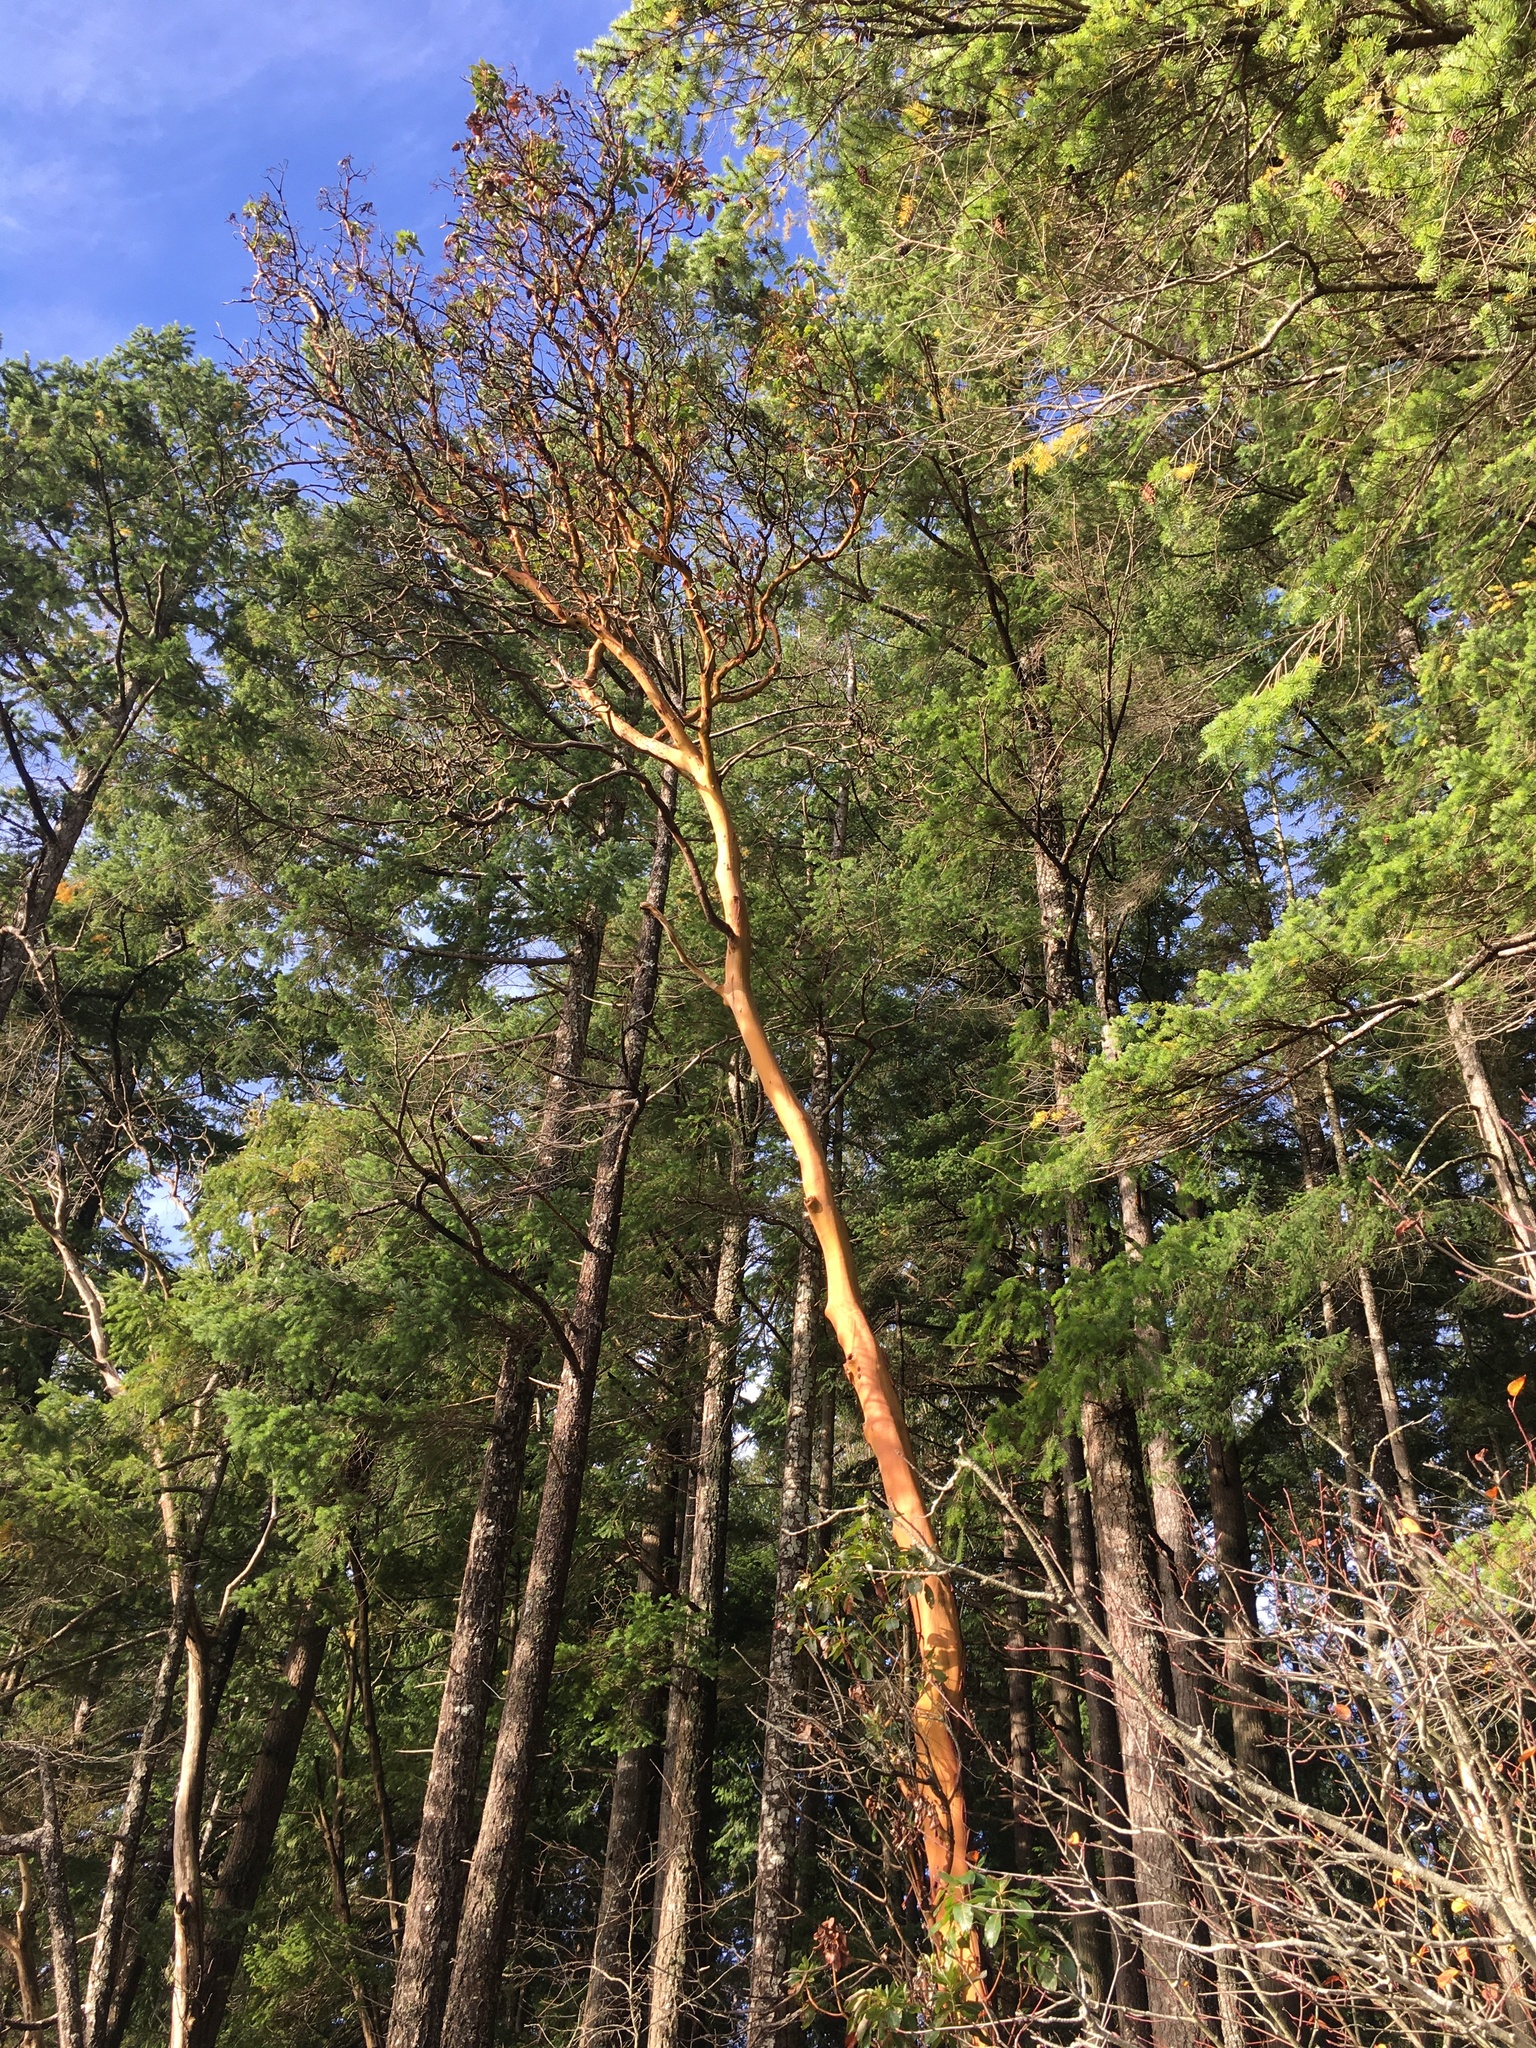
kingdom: Plantae
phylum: Tracheophyta
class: Magnoliopsida
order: Ericales
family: Ericaceae
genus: Arbutus
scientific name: Arbutus menziesii
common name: Pacific madrone
